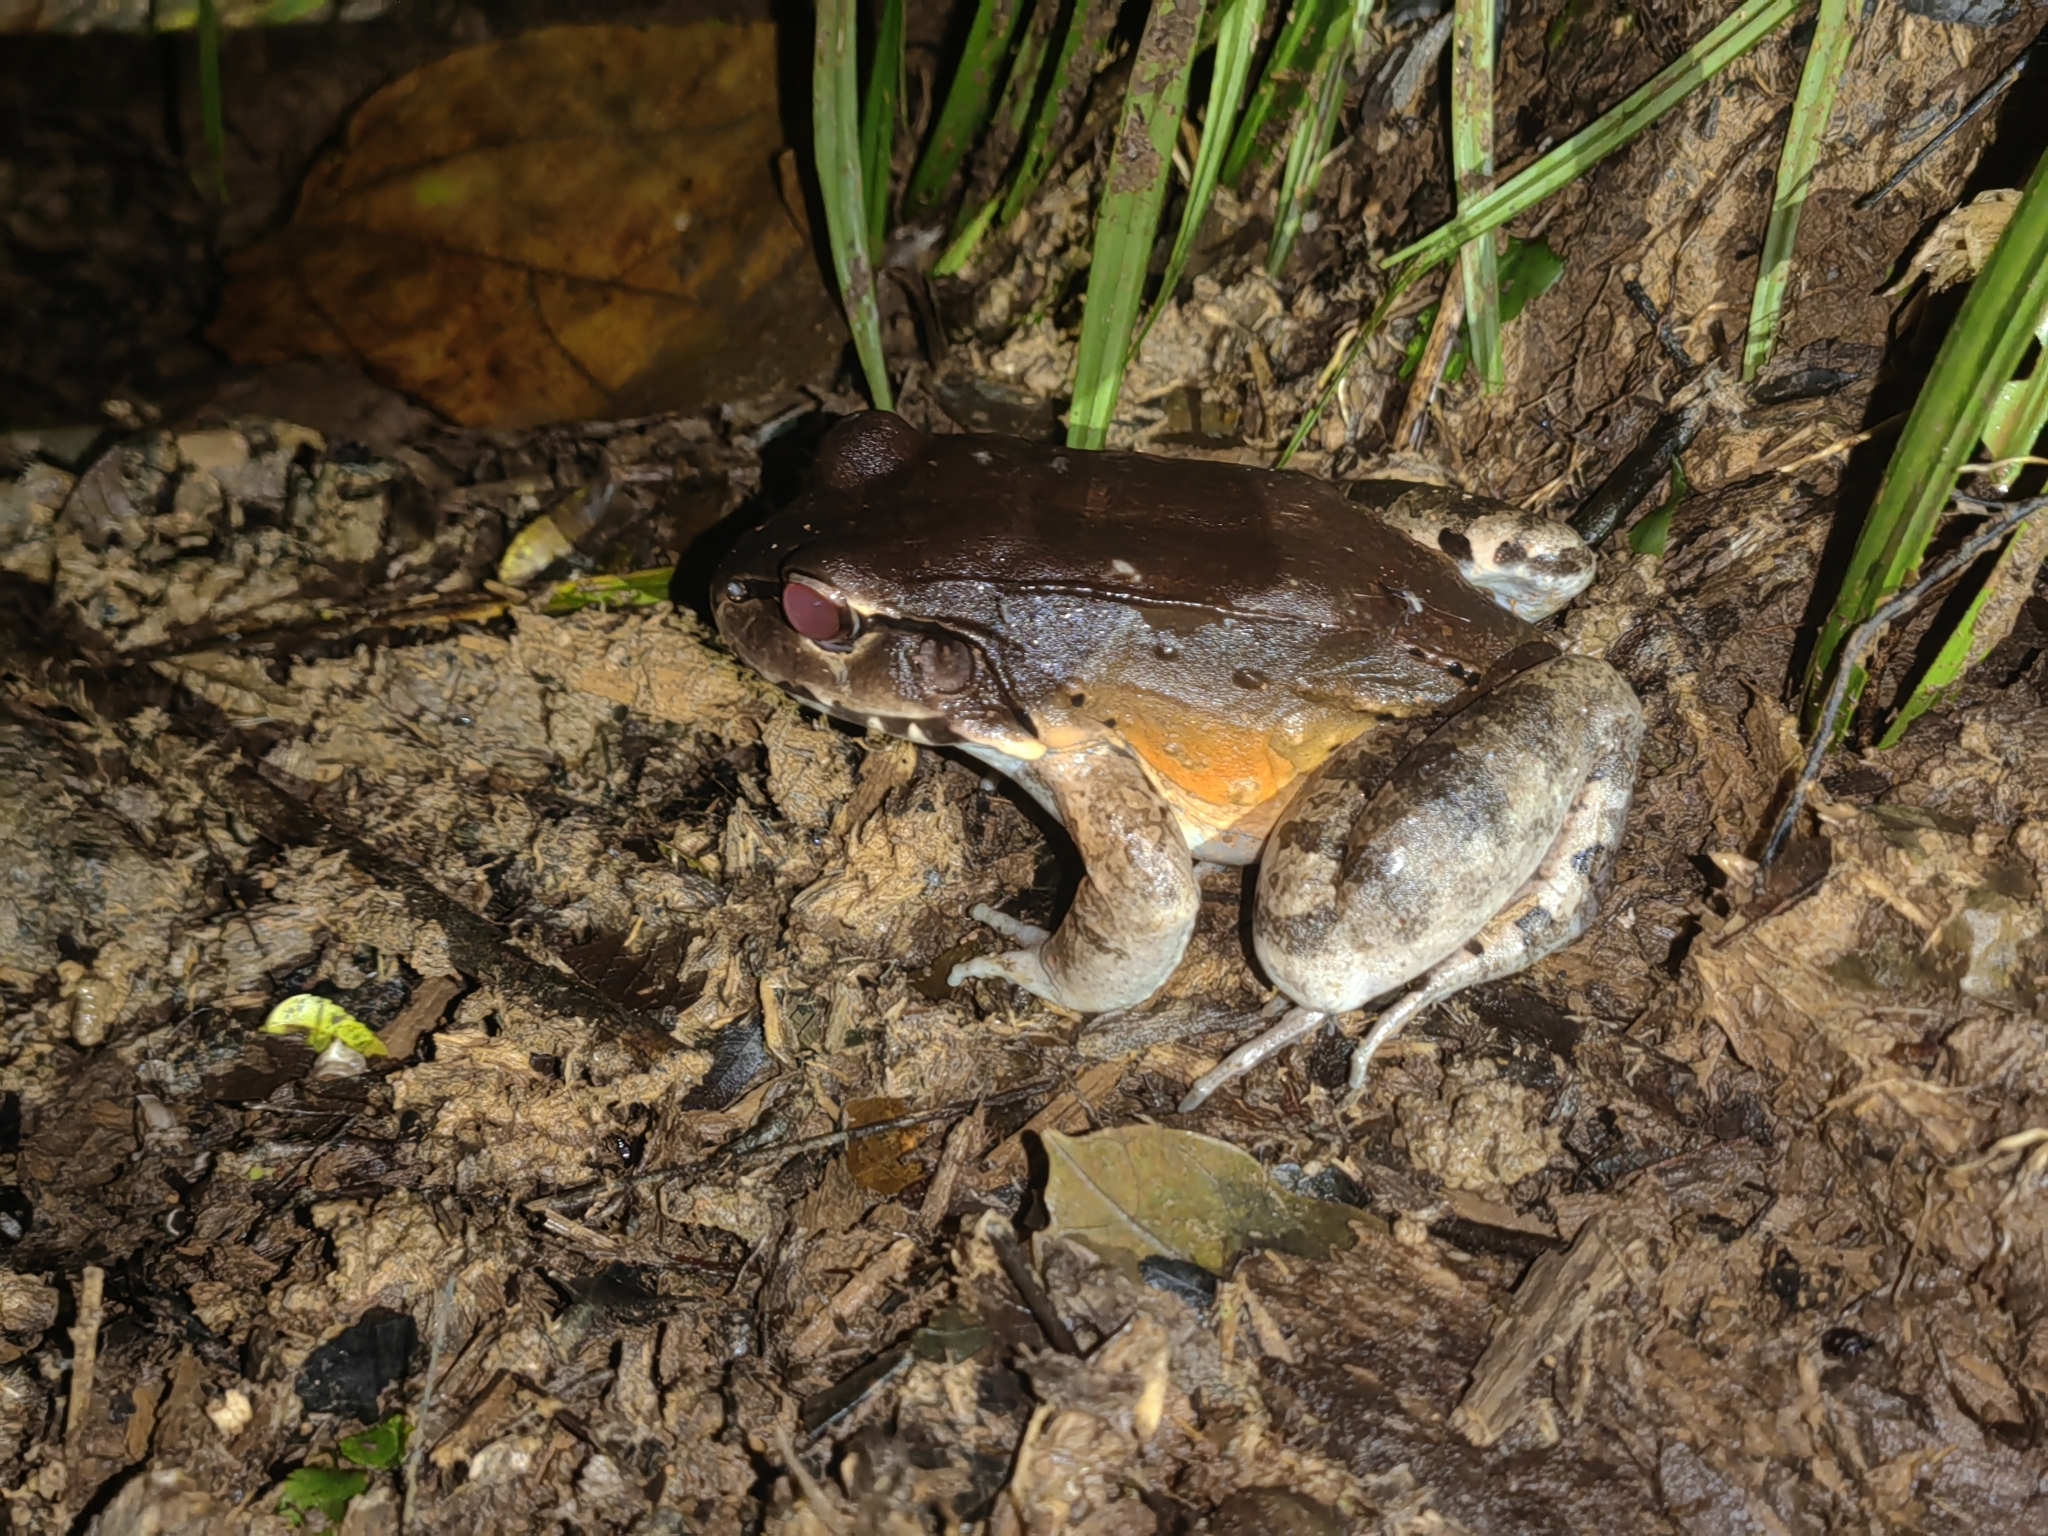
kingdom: Animalia
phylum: Chordata
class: Amphibia
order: Anura
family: Leptodactylidae
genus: Leptodactylus
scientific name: Leptodactylus savagei
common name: Savage's thin-toed frog
